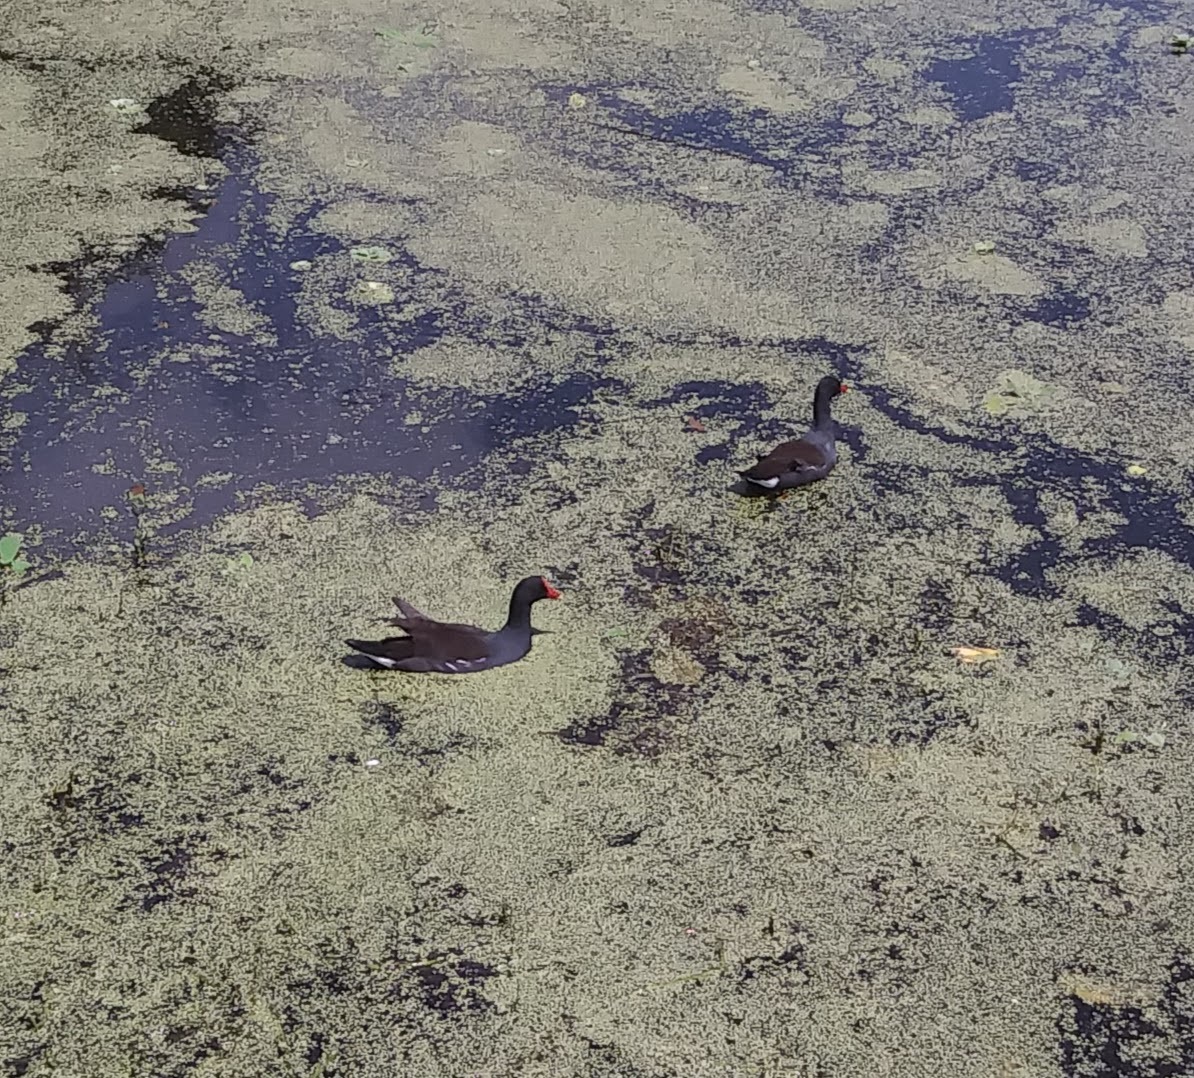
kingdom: Animalia
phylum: Chordata
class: Aves
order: Gruiformes
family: Rallidae
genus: Gallinula
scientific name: Gallinula chloropus
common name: Common moorhen
